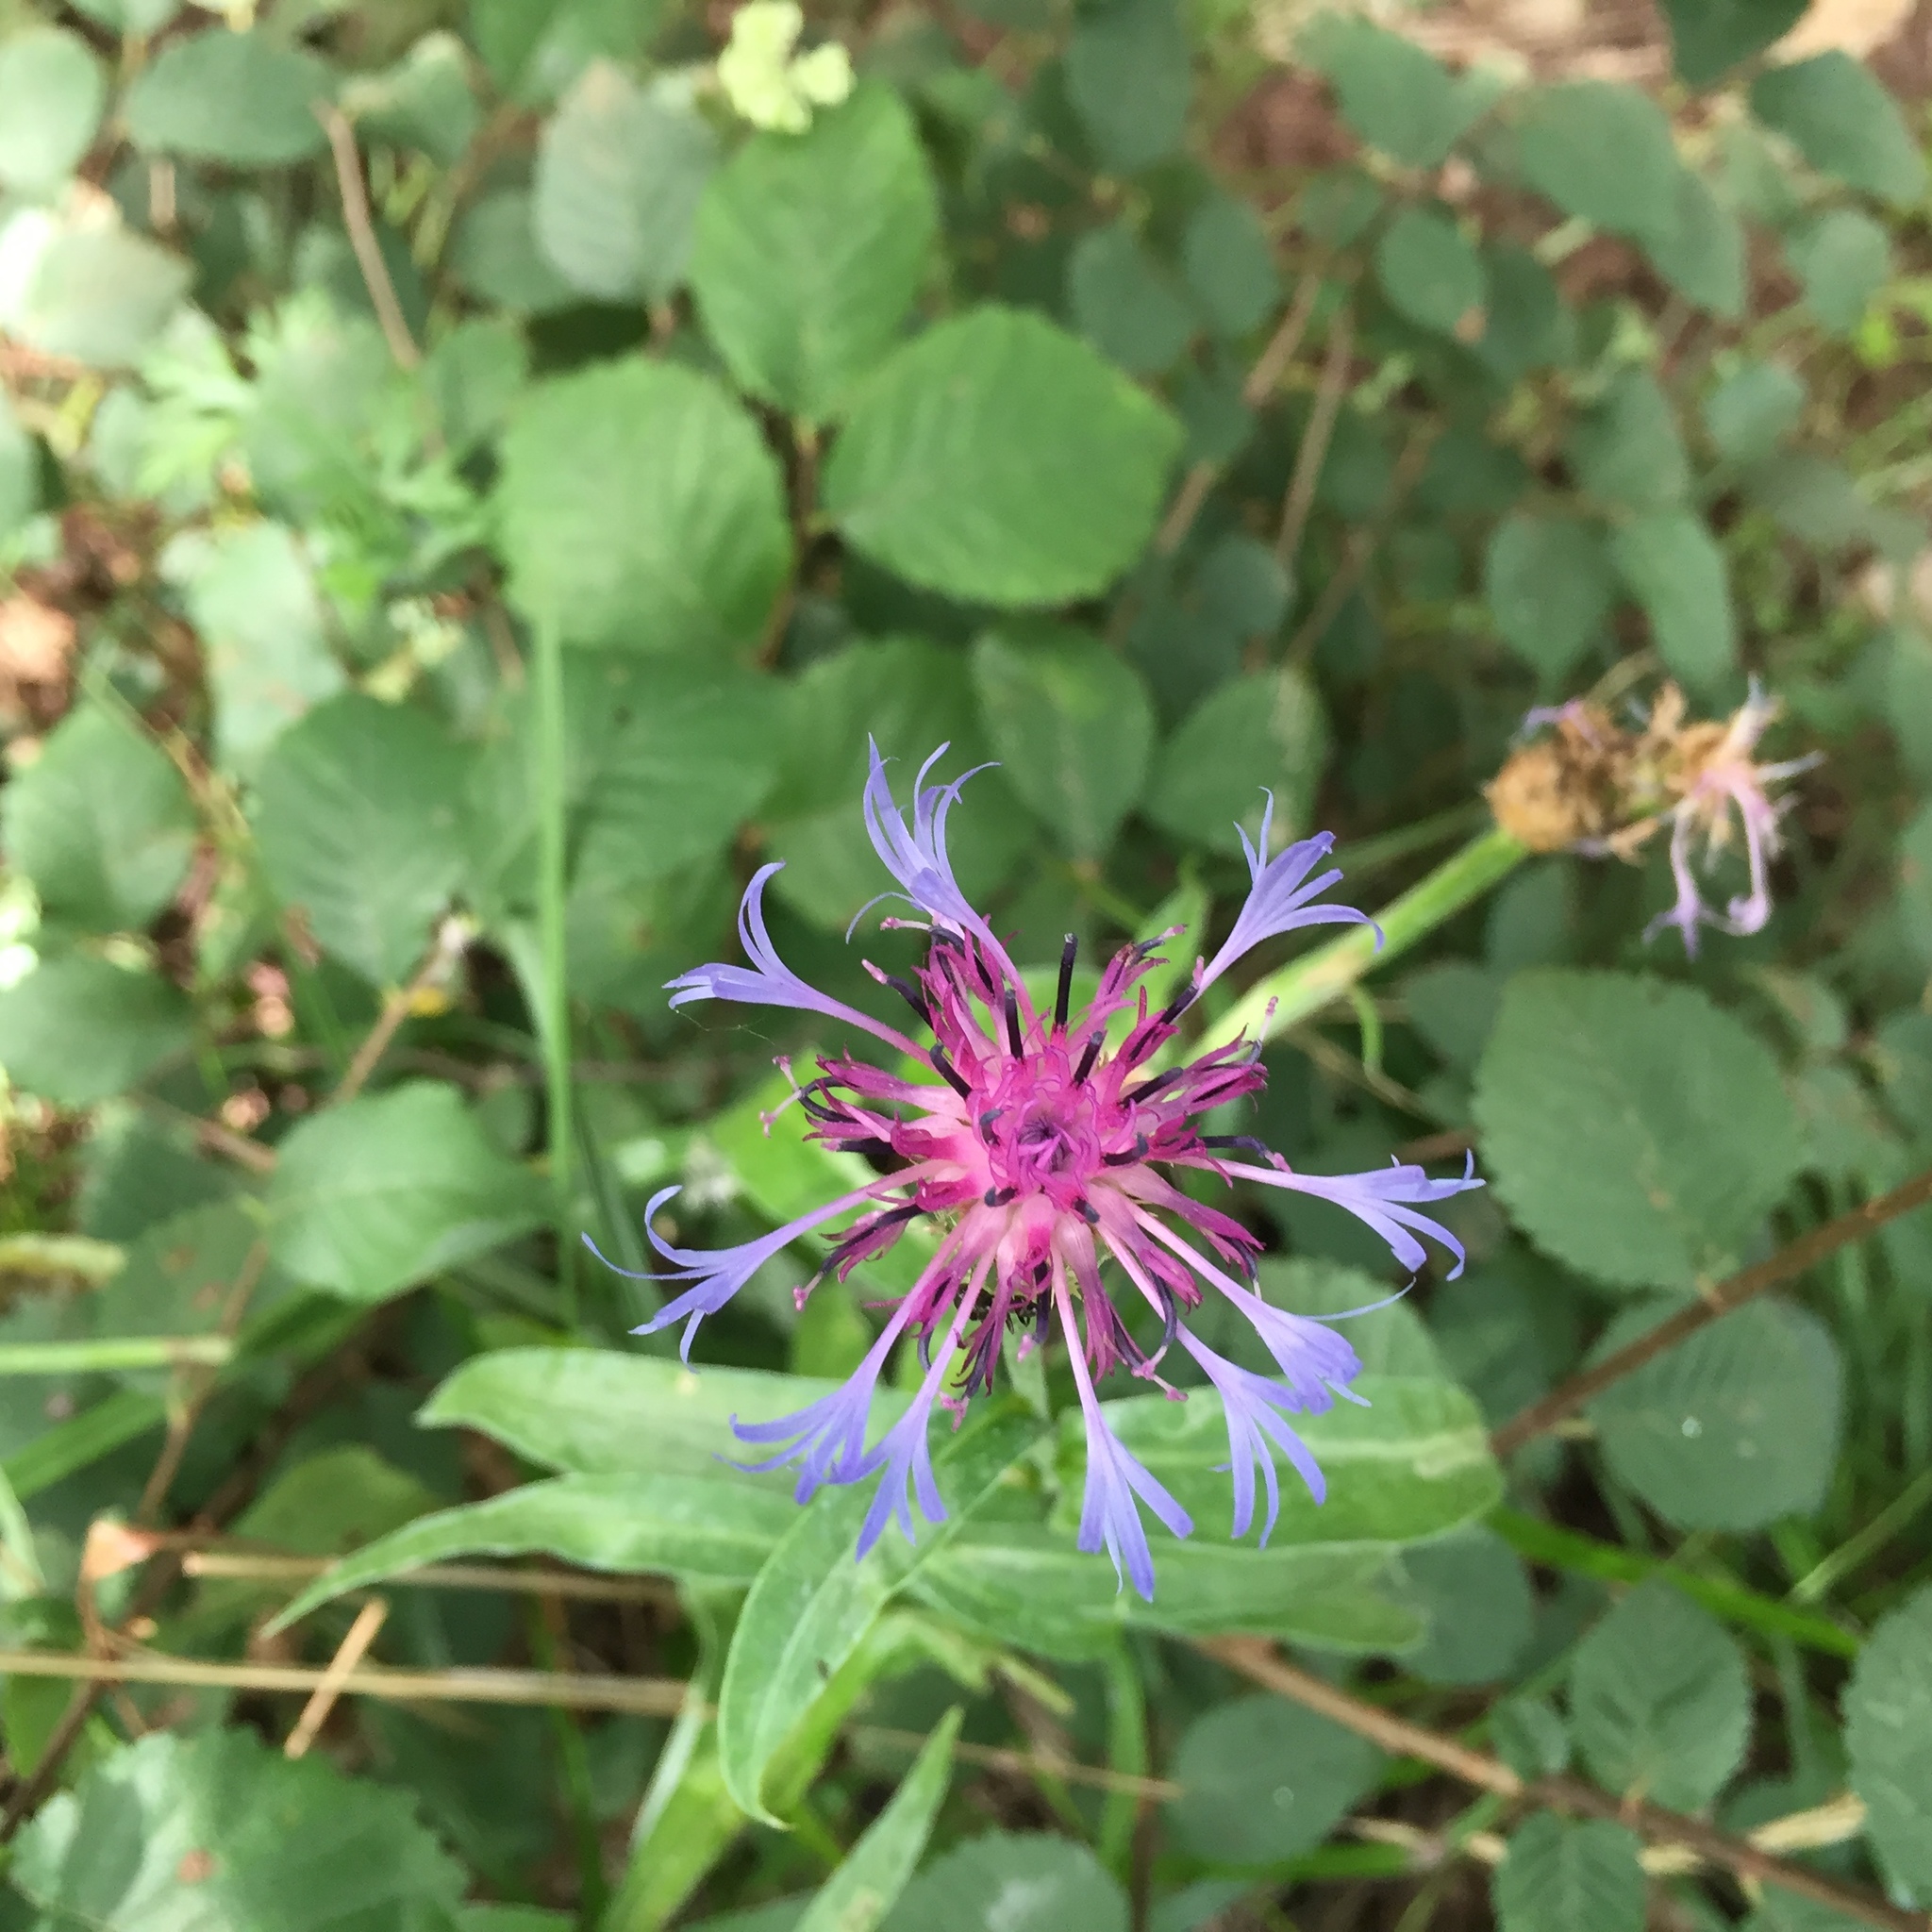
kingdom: Plantae
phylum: Tracheophyta
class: Magnoliopsida
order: Asterales
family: Asteraceae
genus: Centaurea
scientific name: Centaurea triumfettii
